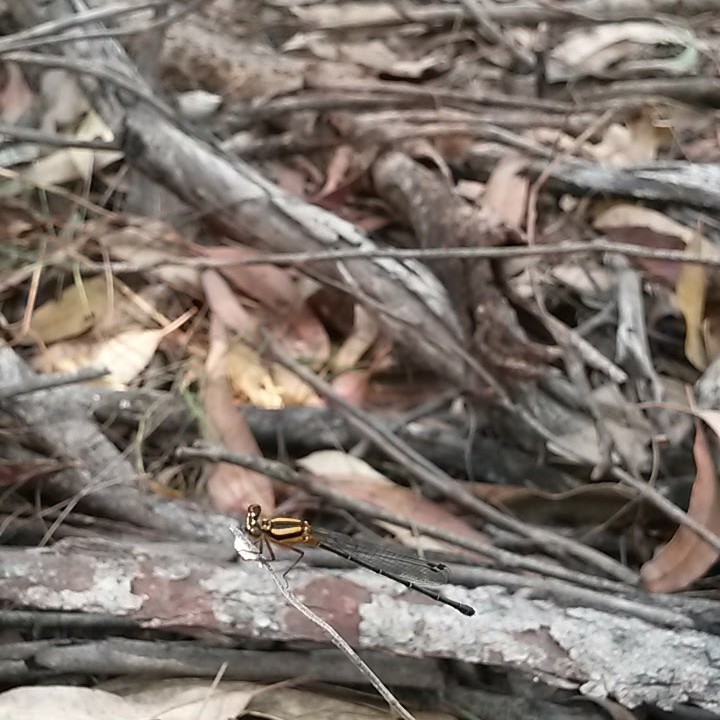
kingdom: Animalia
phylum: Arthropoda
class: Insecta
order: Odonata
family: Platycnemididae
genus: Nososticta
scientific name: Nososticta solida
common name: Orange threadtail
